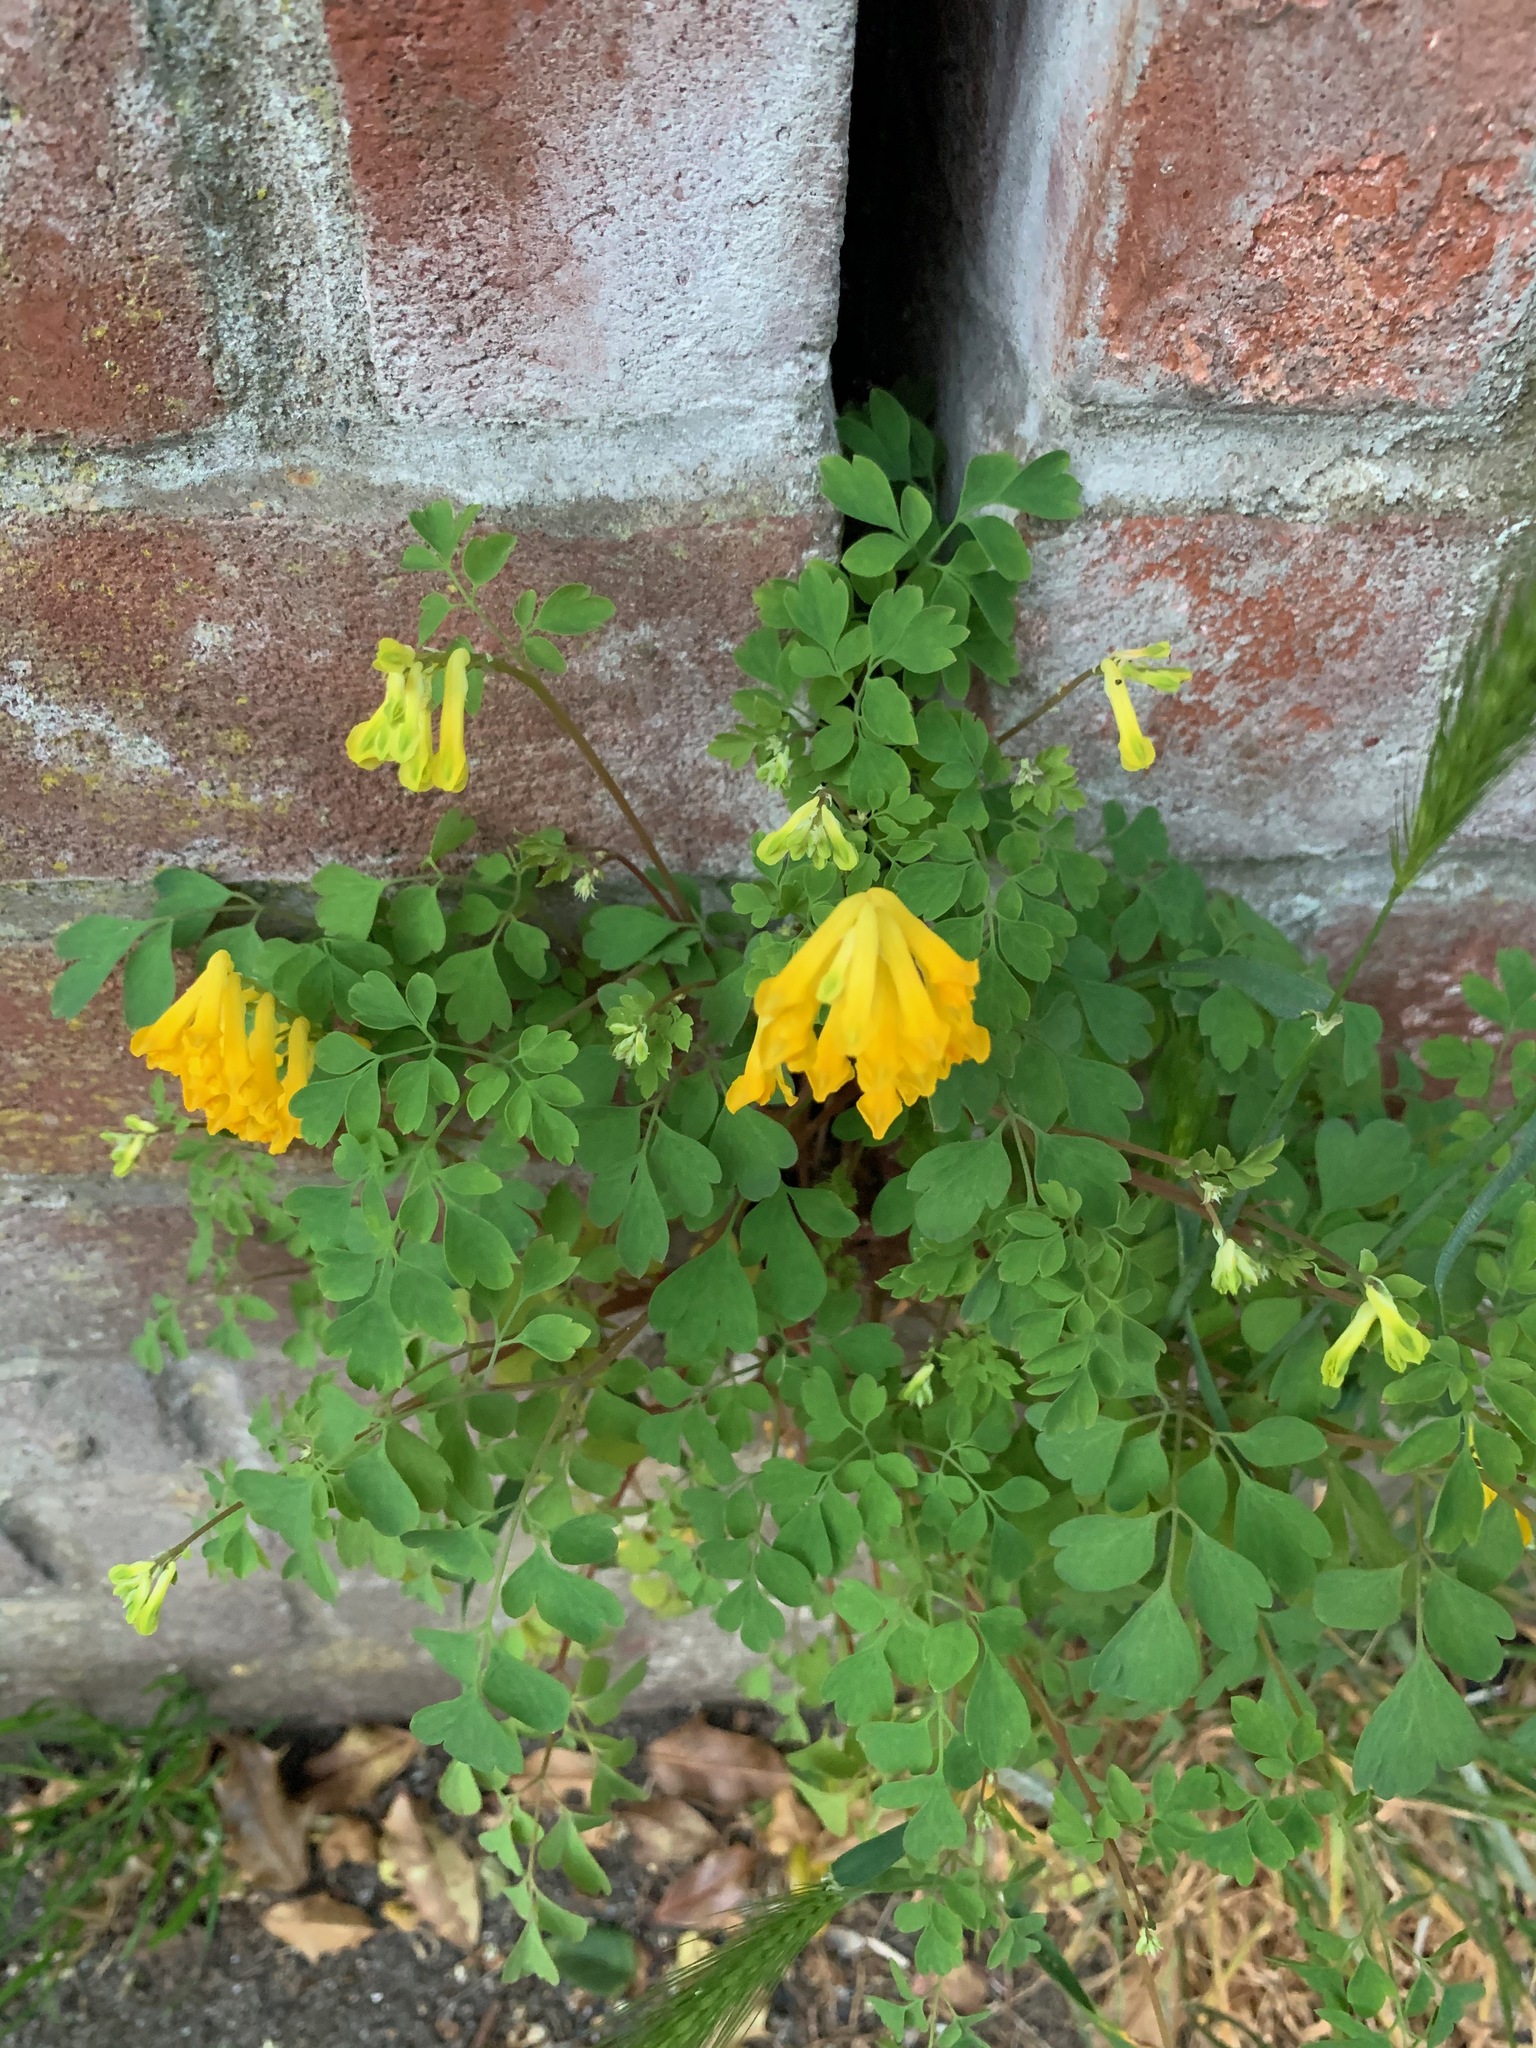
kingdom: Plantae
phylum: Tracheophyta
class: Magnoliopsida
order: Ranunculales
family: Papaveraceae
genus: Pseudofumaria
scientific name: Pseudofumaria lutea
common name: Yellow corydalis
